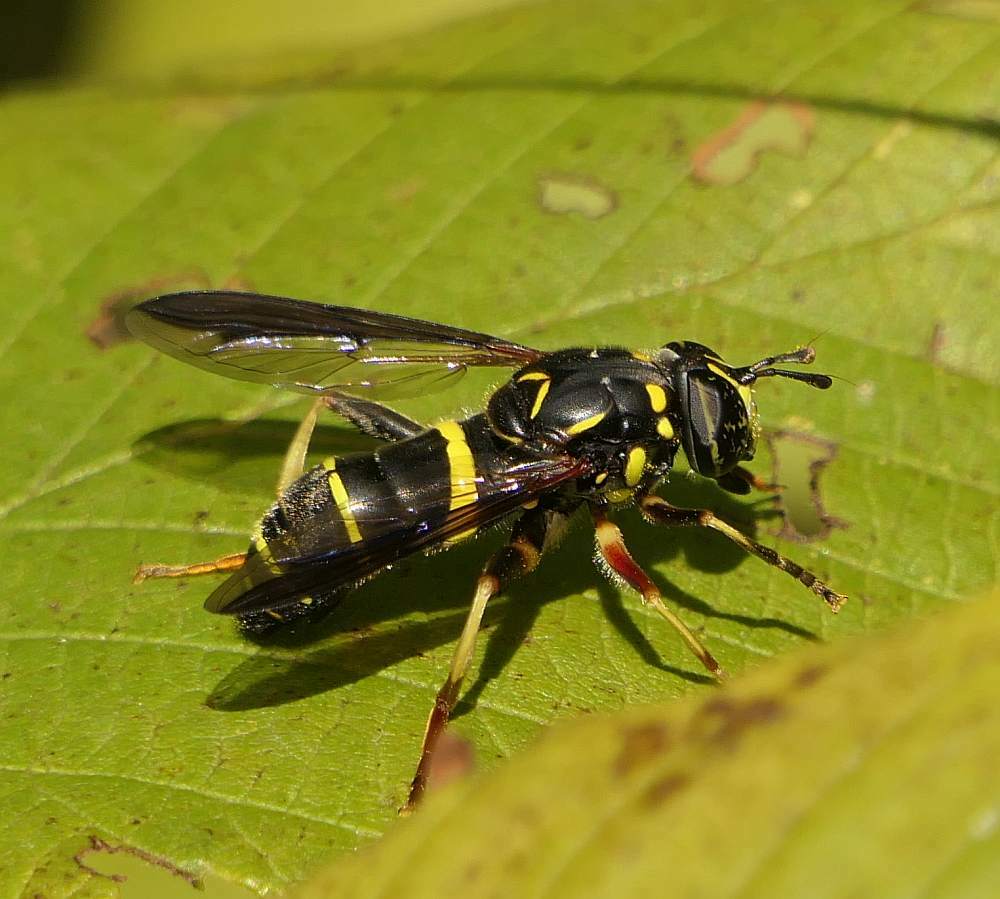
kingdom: Animalia
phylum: Arthropoda
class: Insecta
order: Diptera
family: Syrphidae
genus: Spilomyia
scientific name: Spilomyia sayi
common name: Four-lined hornet fly
